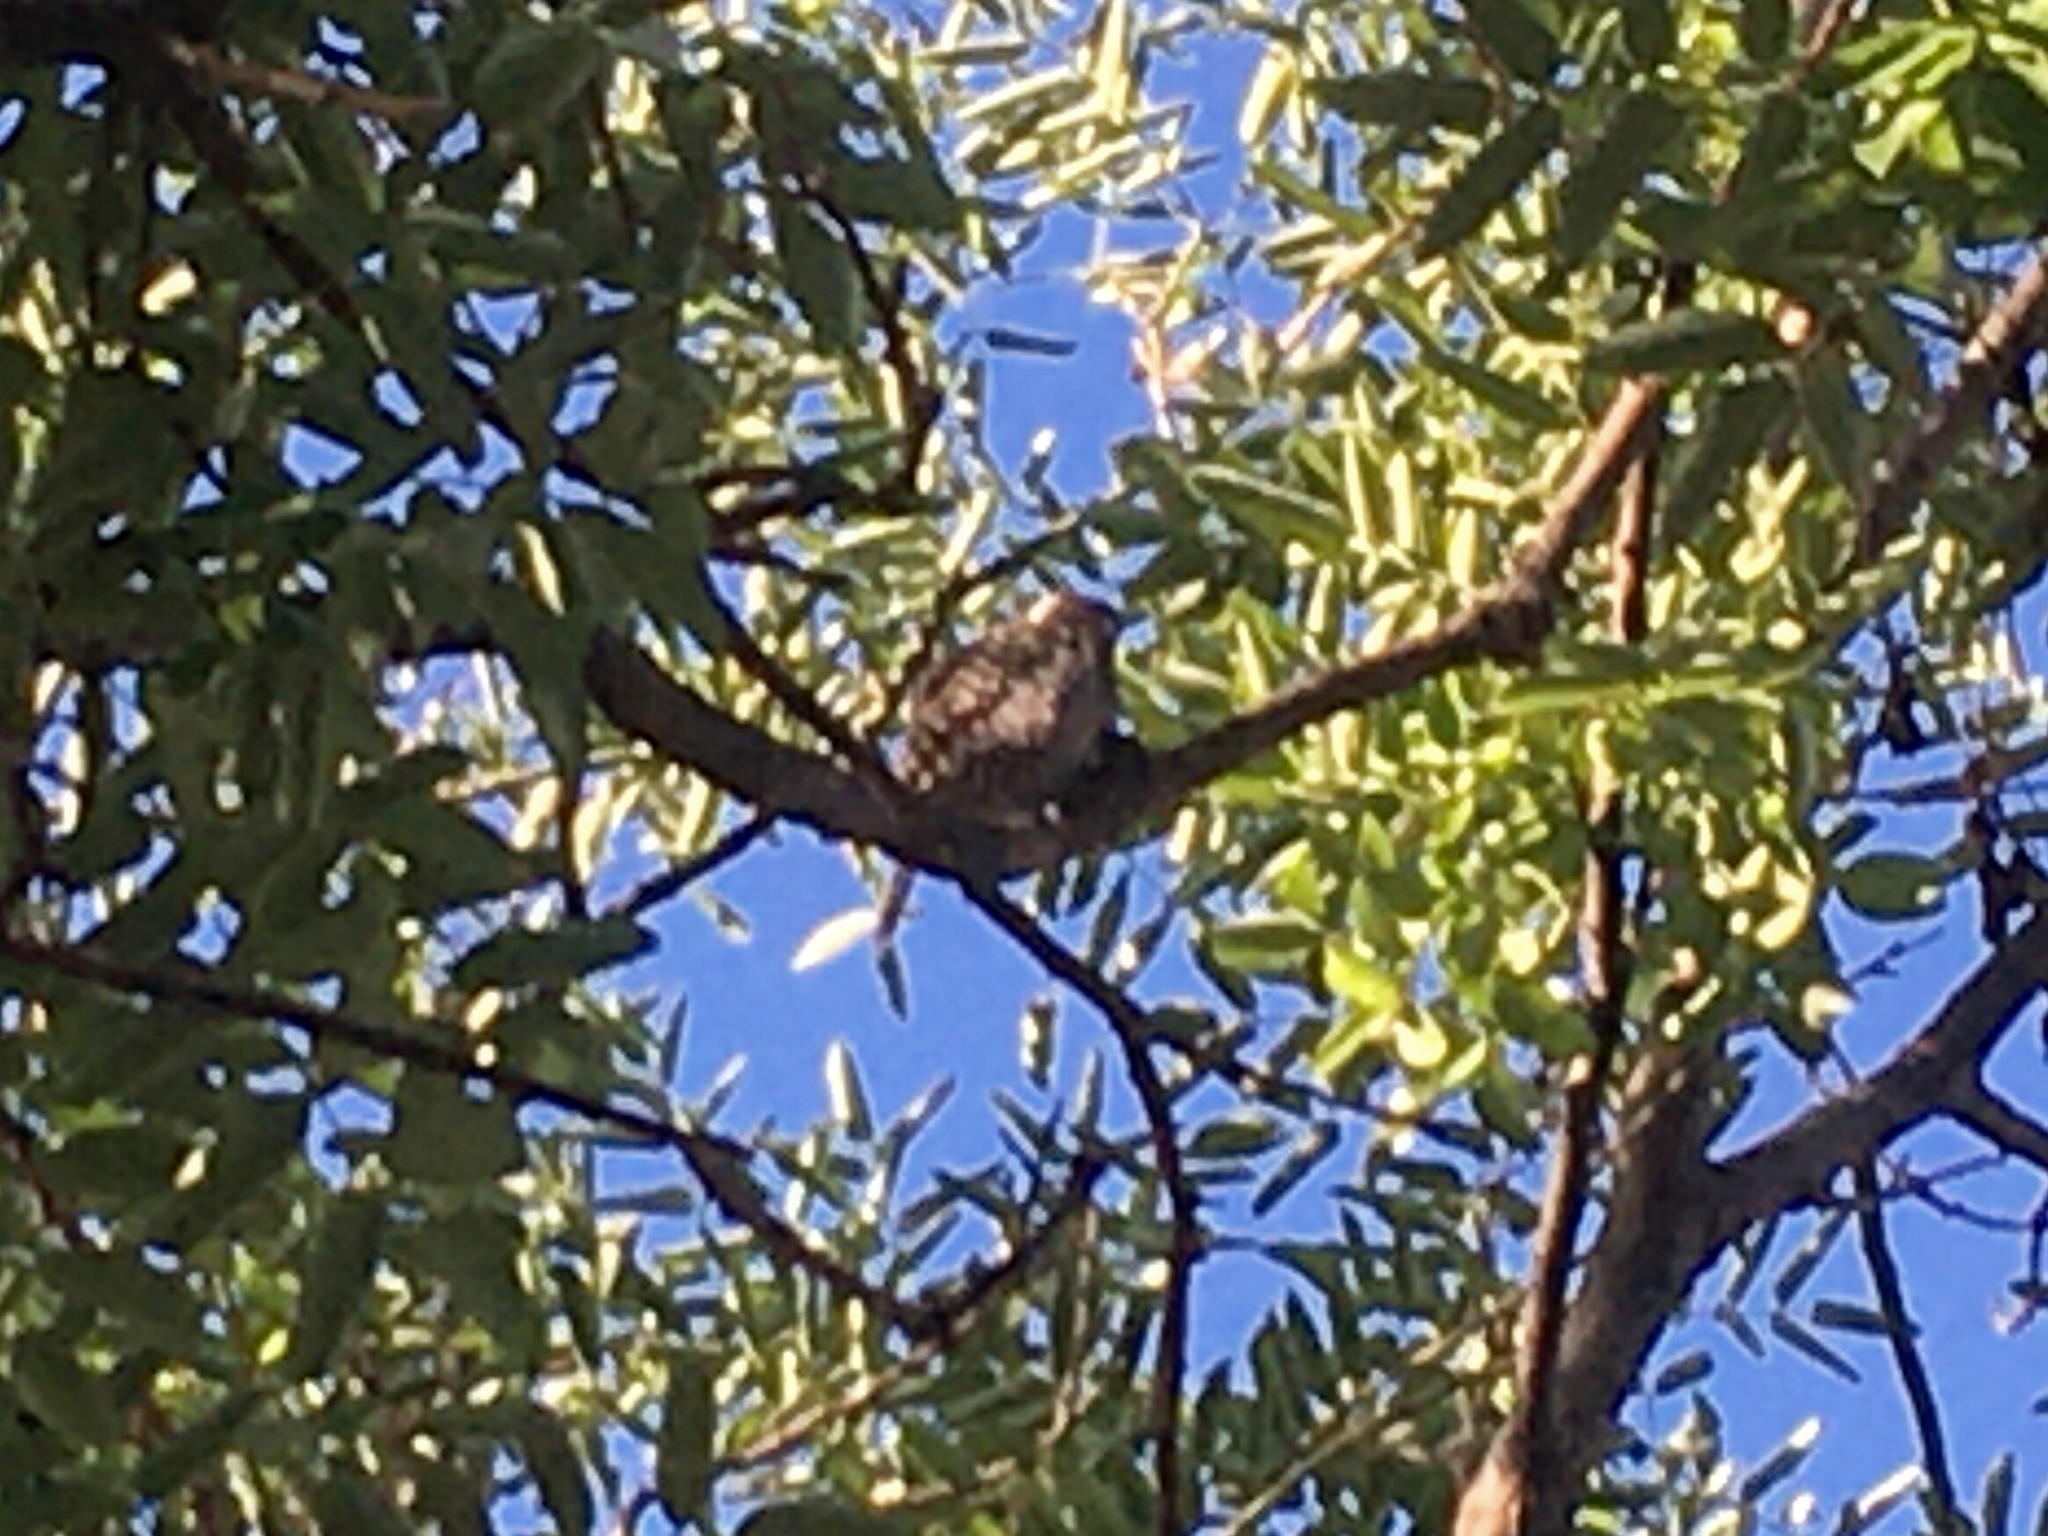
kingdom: Animalia
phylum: Chordata
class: Aves
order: Piciformes
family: Picidae
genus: Veniliornis
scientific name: Veniliornis mixtus
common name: Checkered woodpecker
